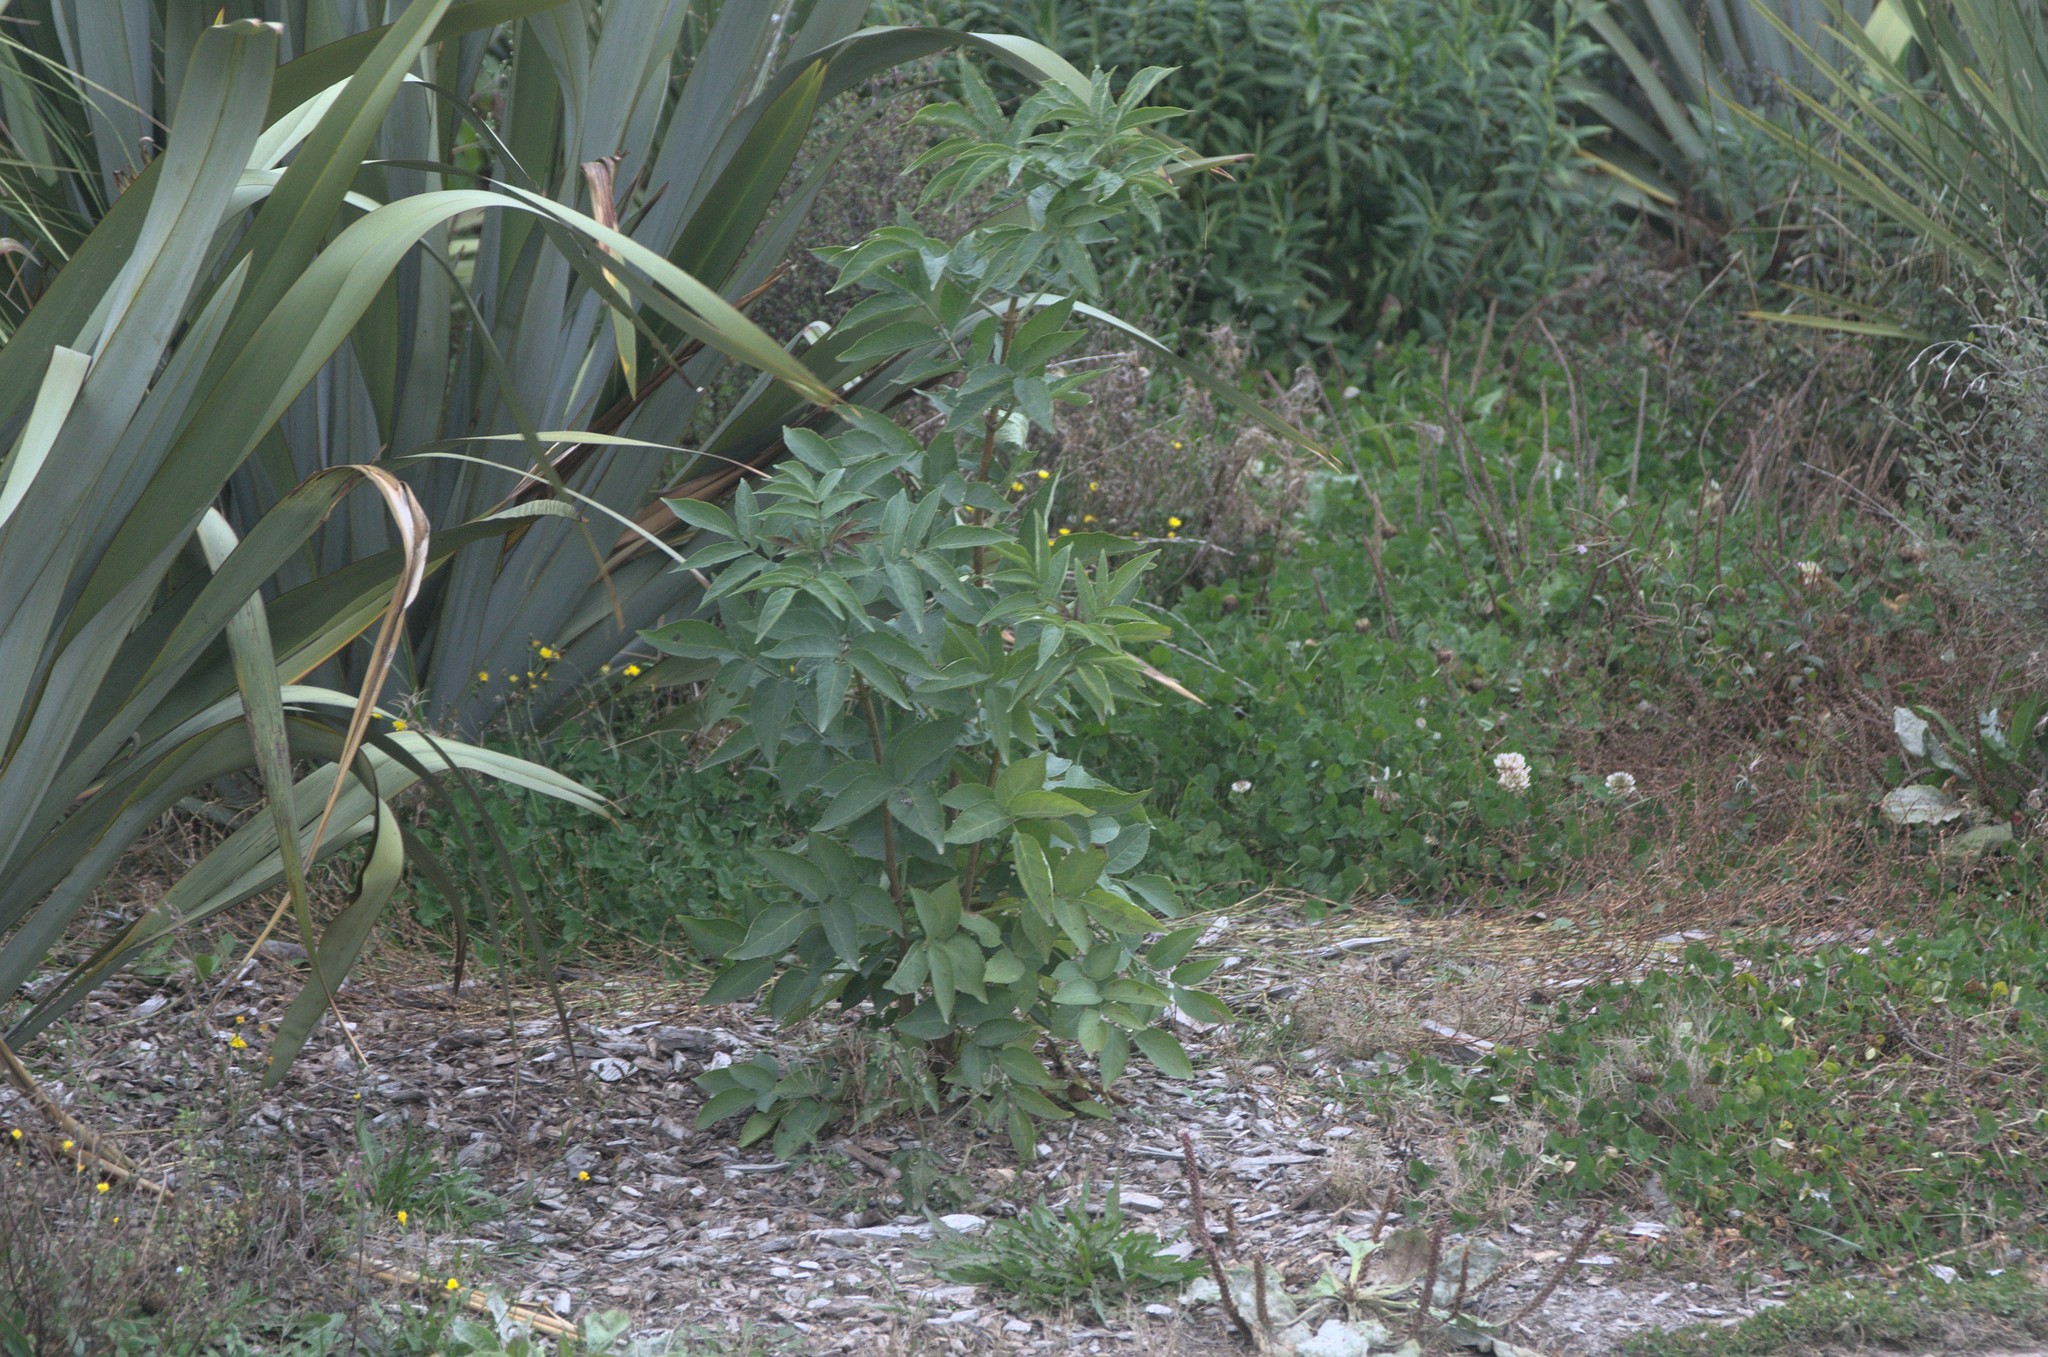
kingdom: Plantae
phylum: Tracheophyta
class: Magnoliopsida
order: Dipsacales
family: Viburnaceae
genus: Sambucus
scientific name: Sambucus nigra
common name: Elder
